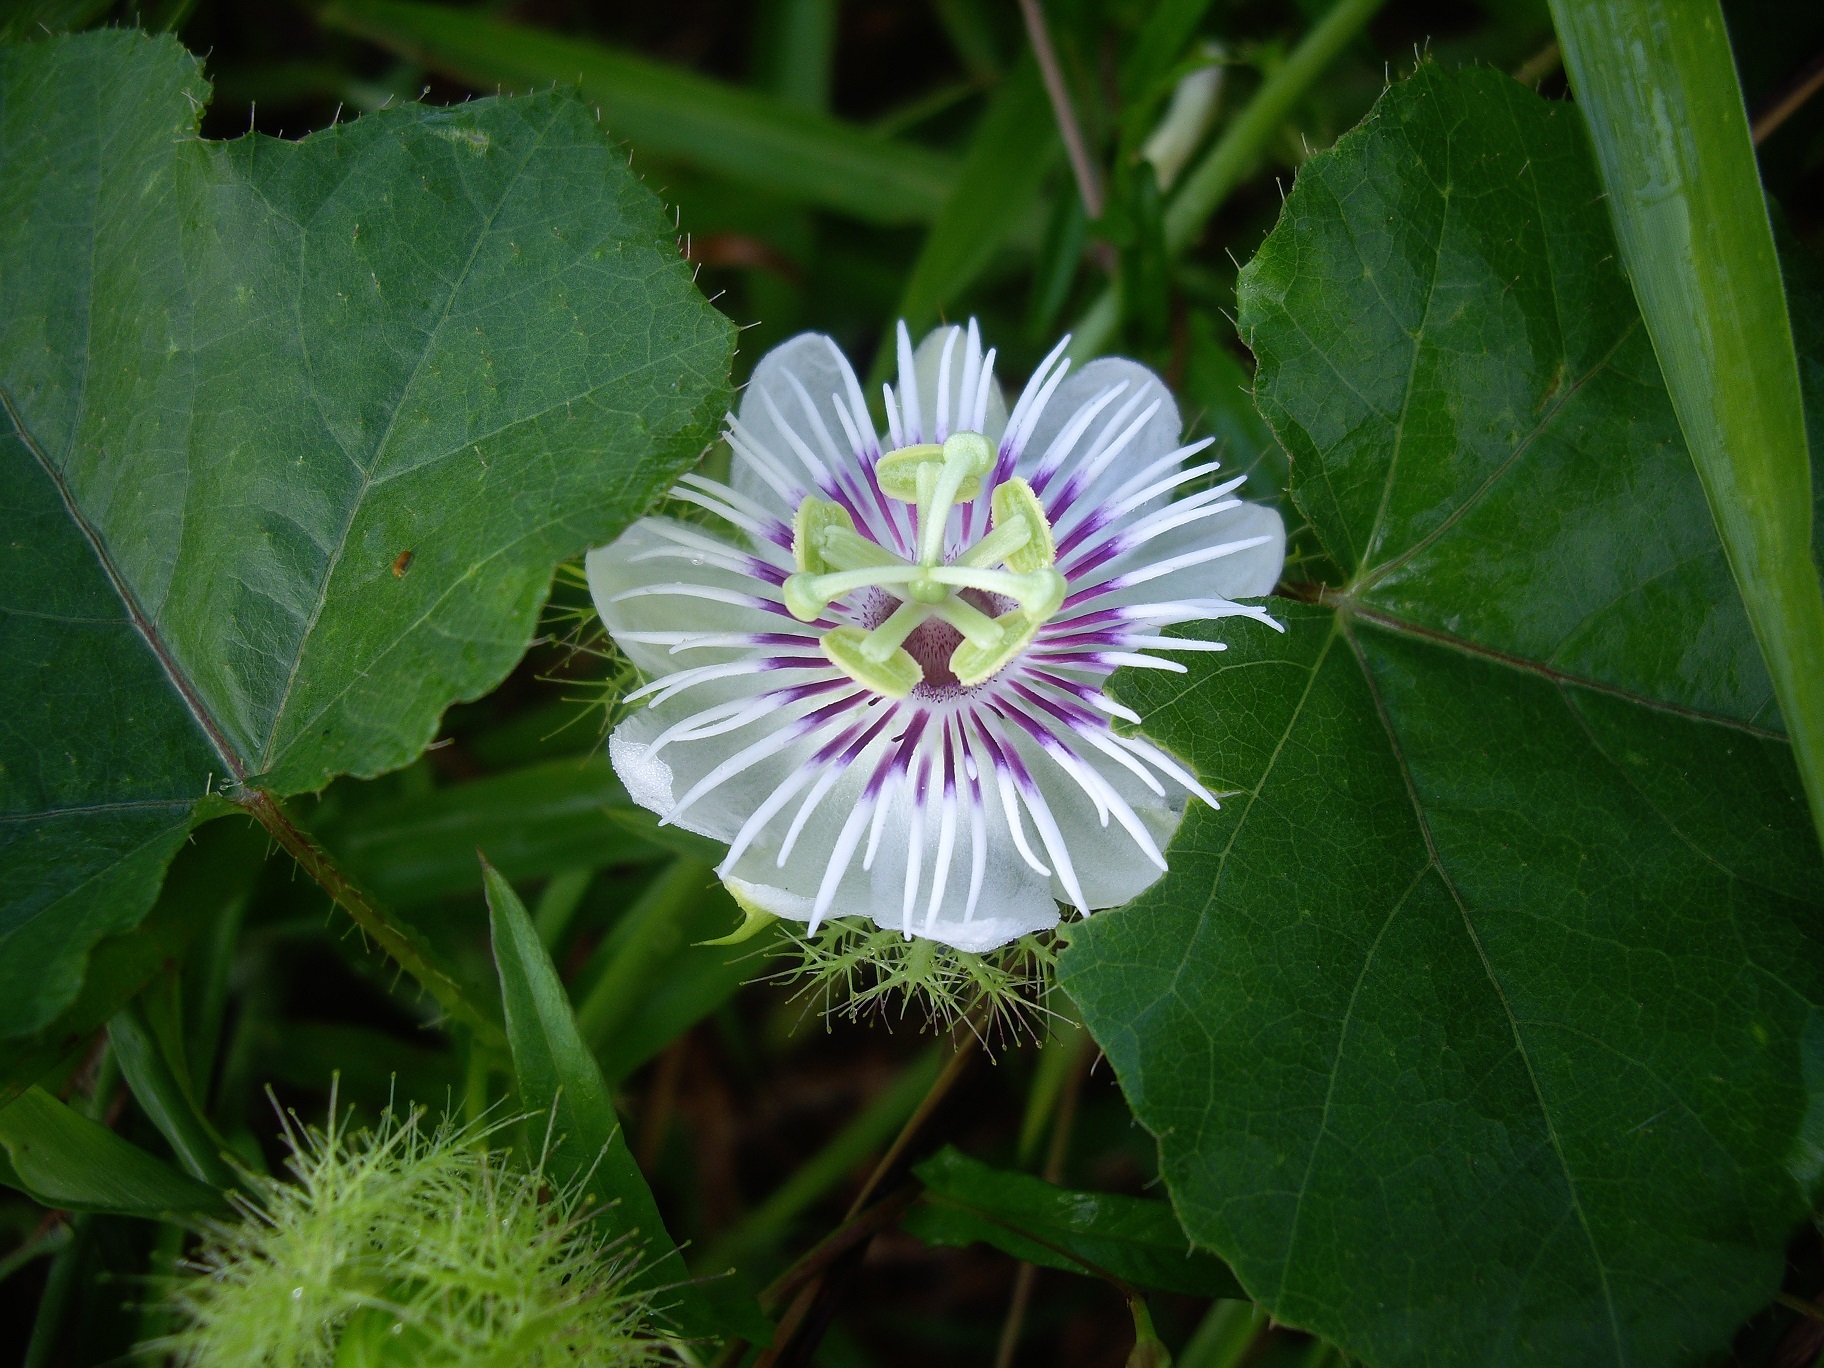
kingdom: Plantae
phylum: Tracheophyta
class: Magnoliopsida
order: Malpighiales
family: Passifloraceae
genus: Passiflora
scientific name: Passiflora foetida
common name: Fetid passionflower
